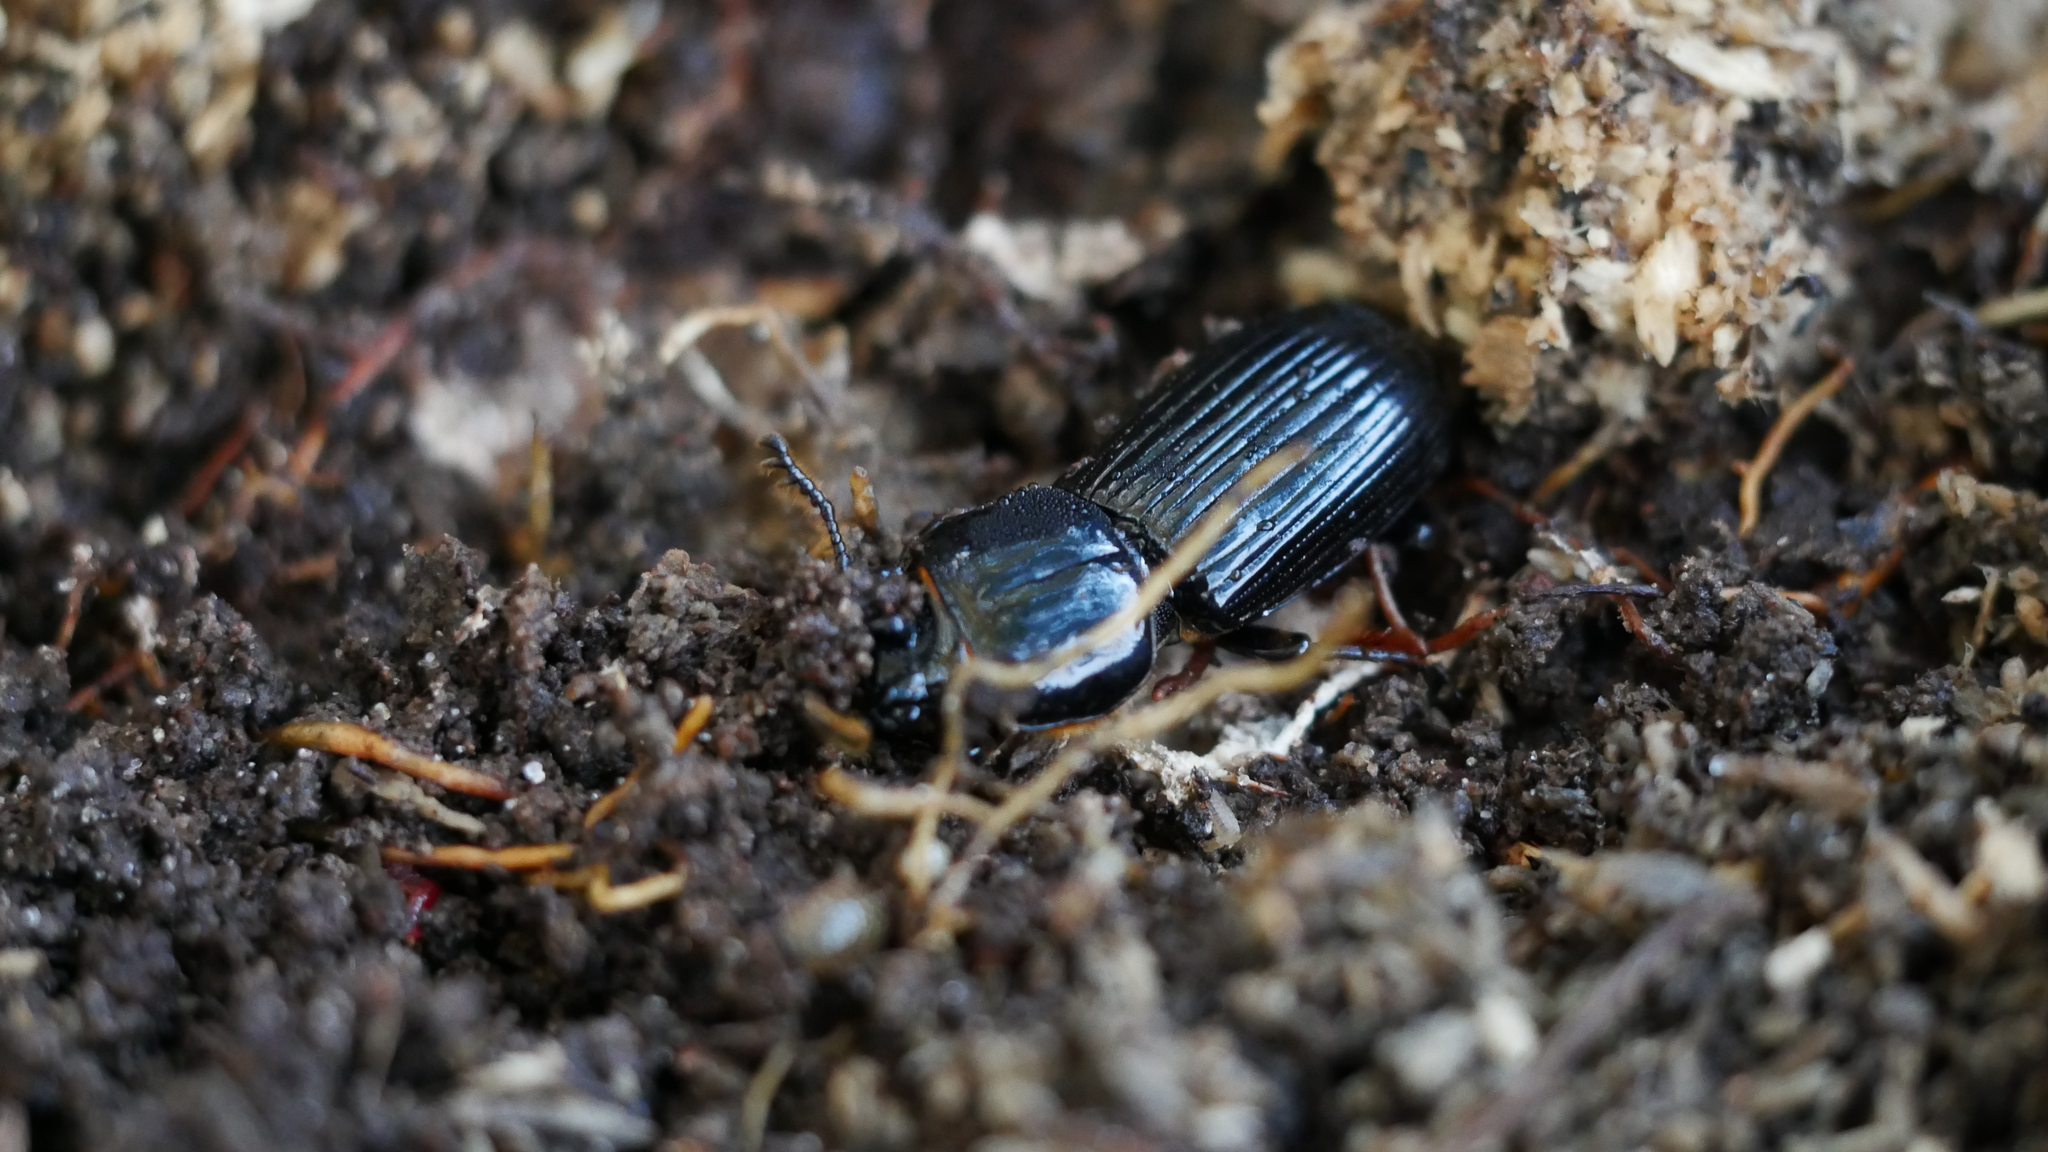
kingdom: Animalia
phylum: Arthropoda
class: Insecta
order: Coleoptera
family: Passalidae
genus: Odontotaenius
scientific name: Odontotaenius disjunctus
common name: Patent leather beetle
